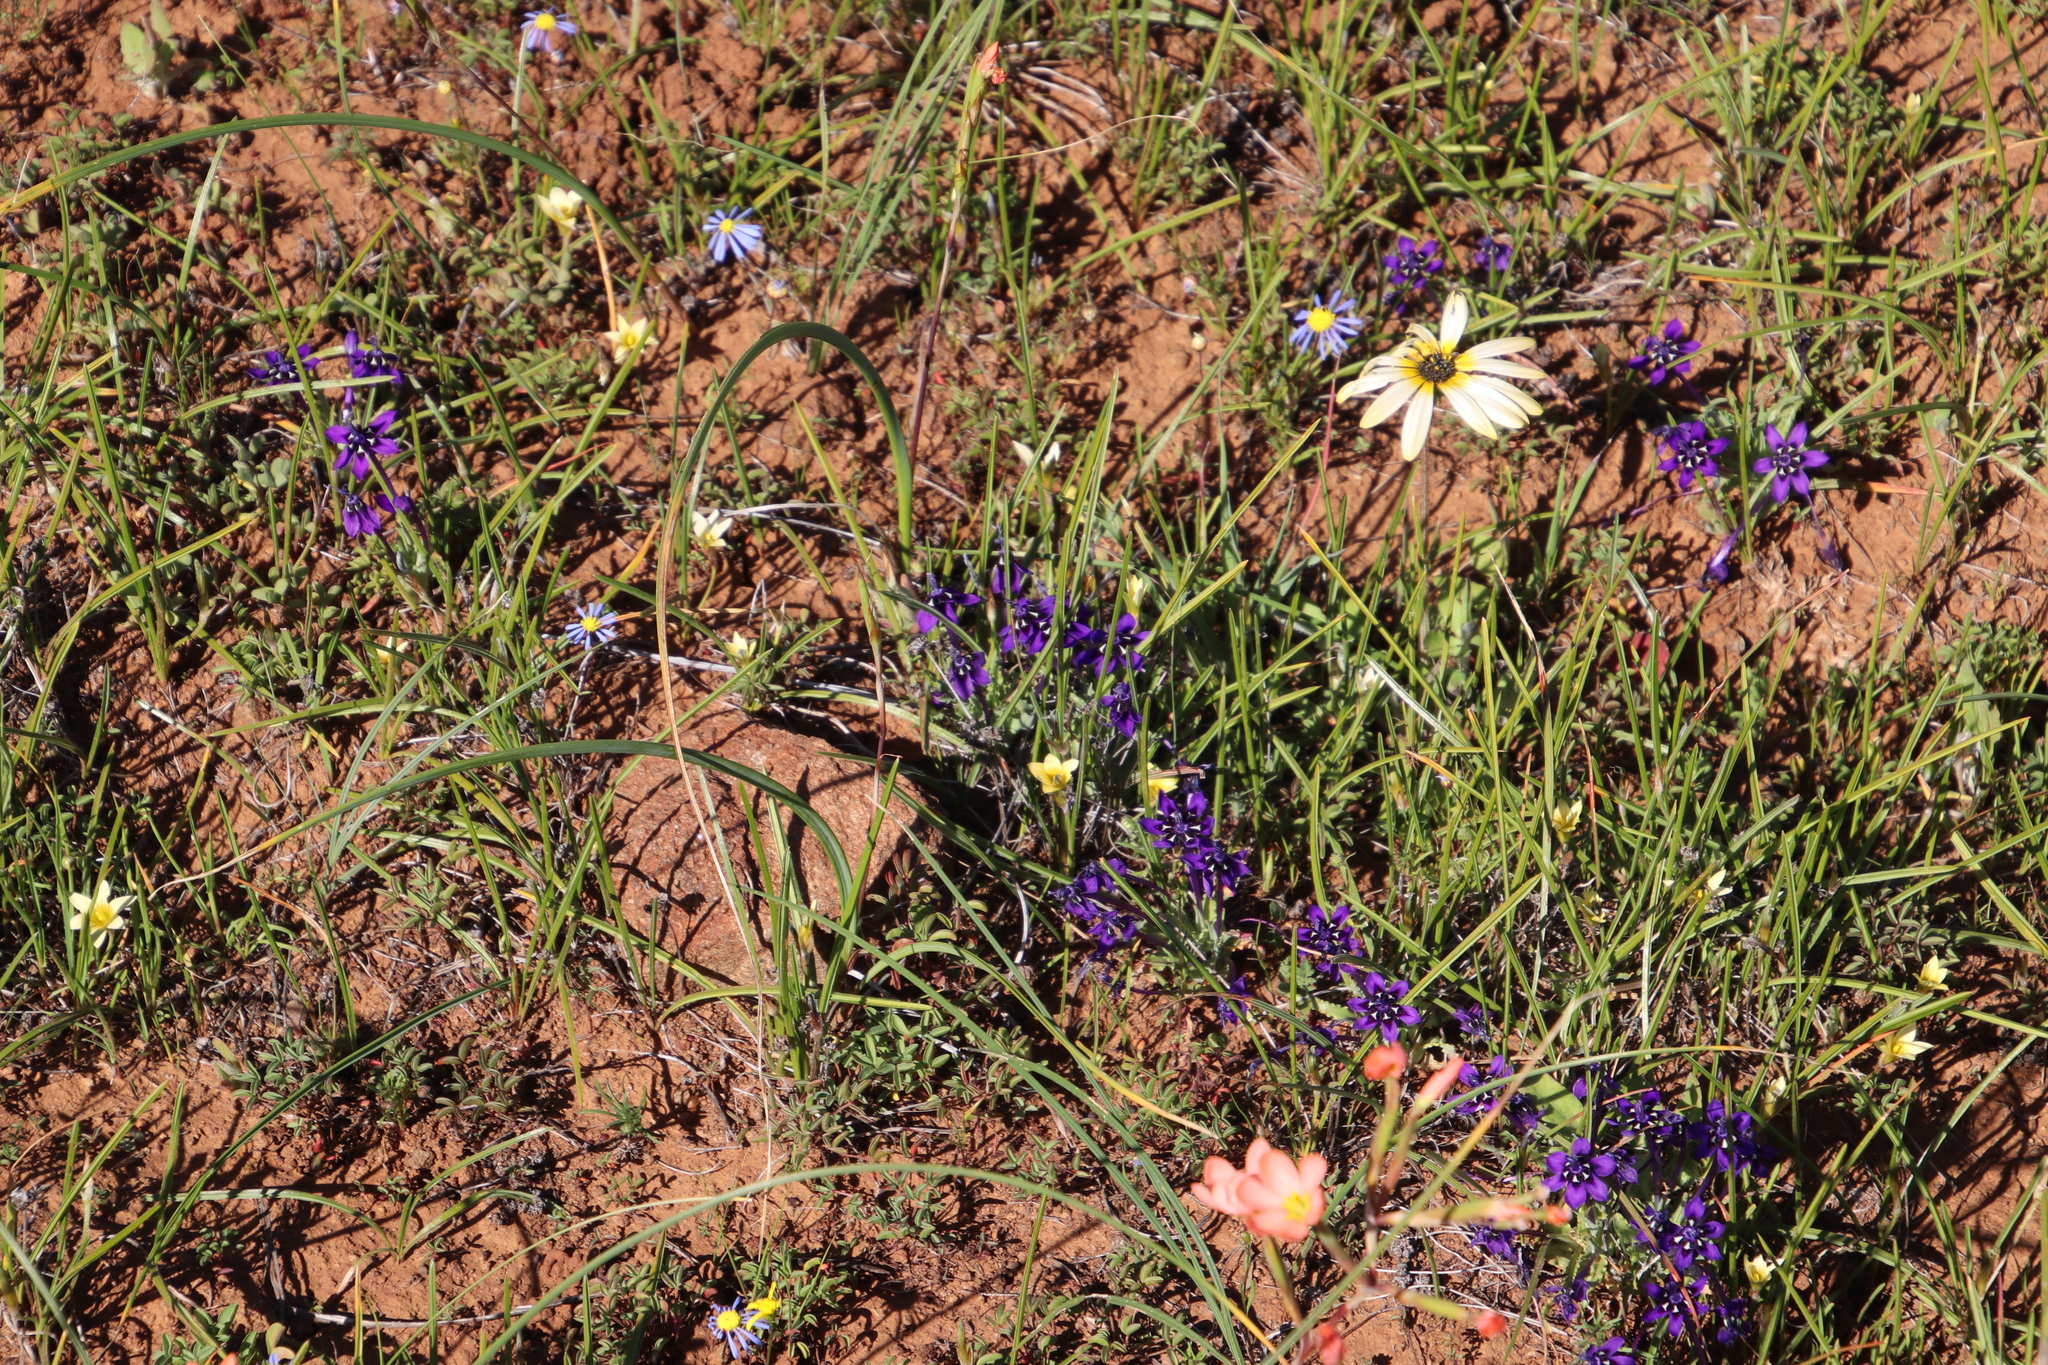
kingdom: Plantae
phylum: Tracheophyta
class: Liliopsida
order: Asparagales
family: Iridaceae
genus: Lapeirousia
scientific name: Lapeirousia oreogena
